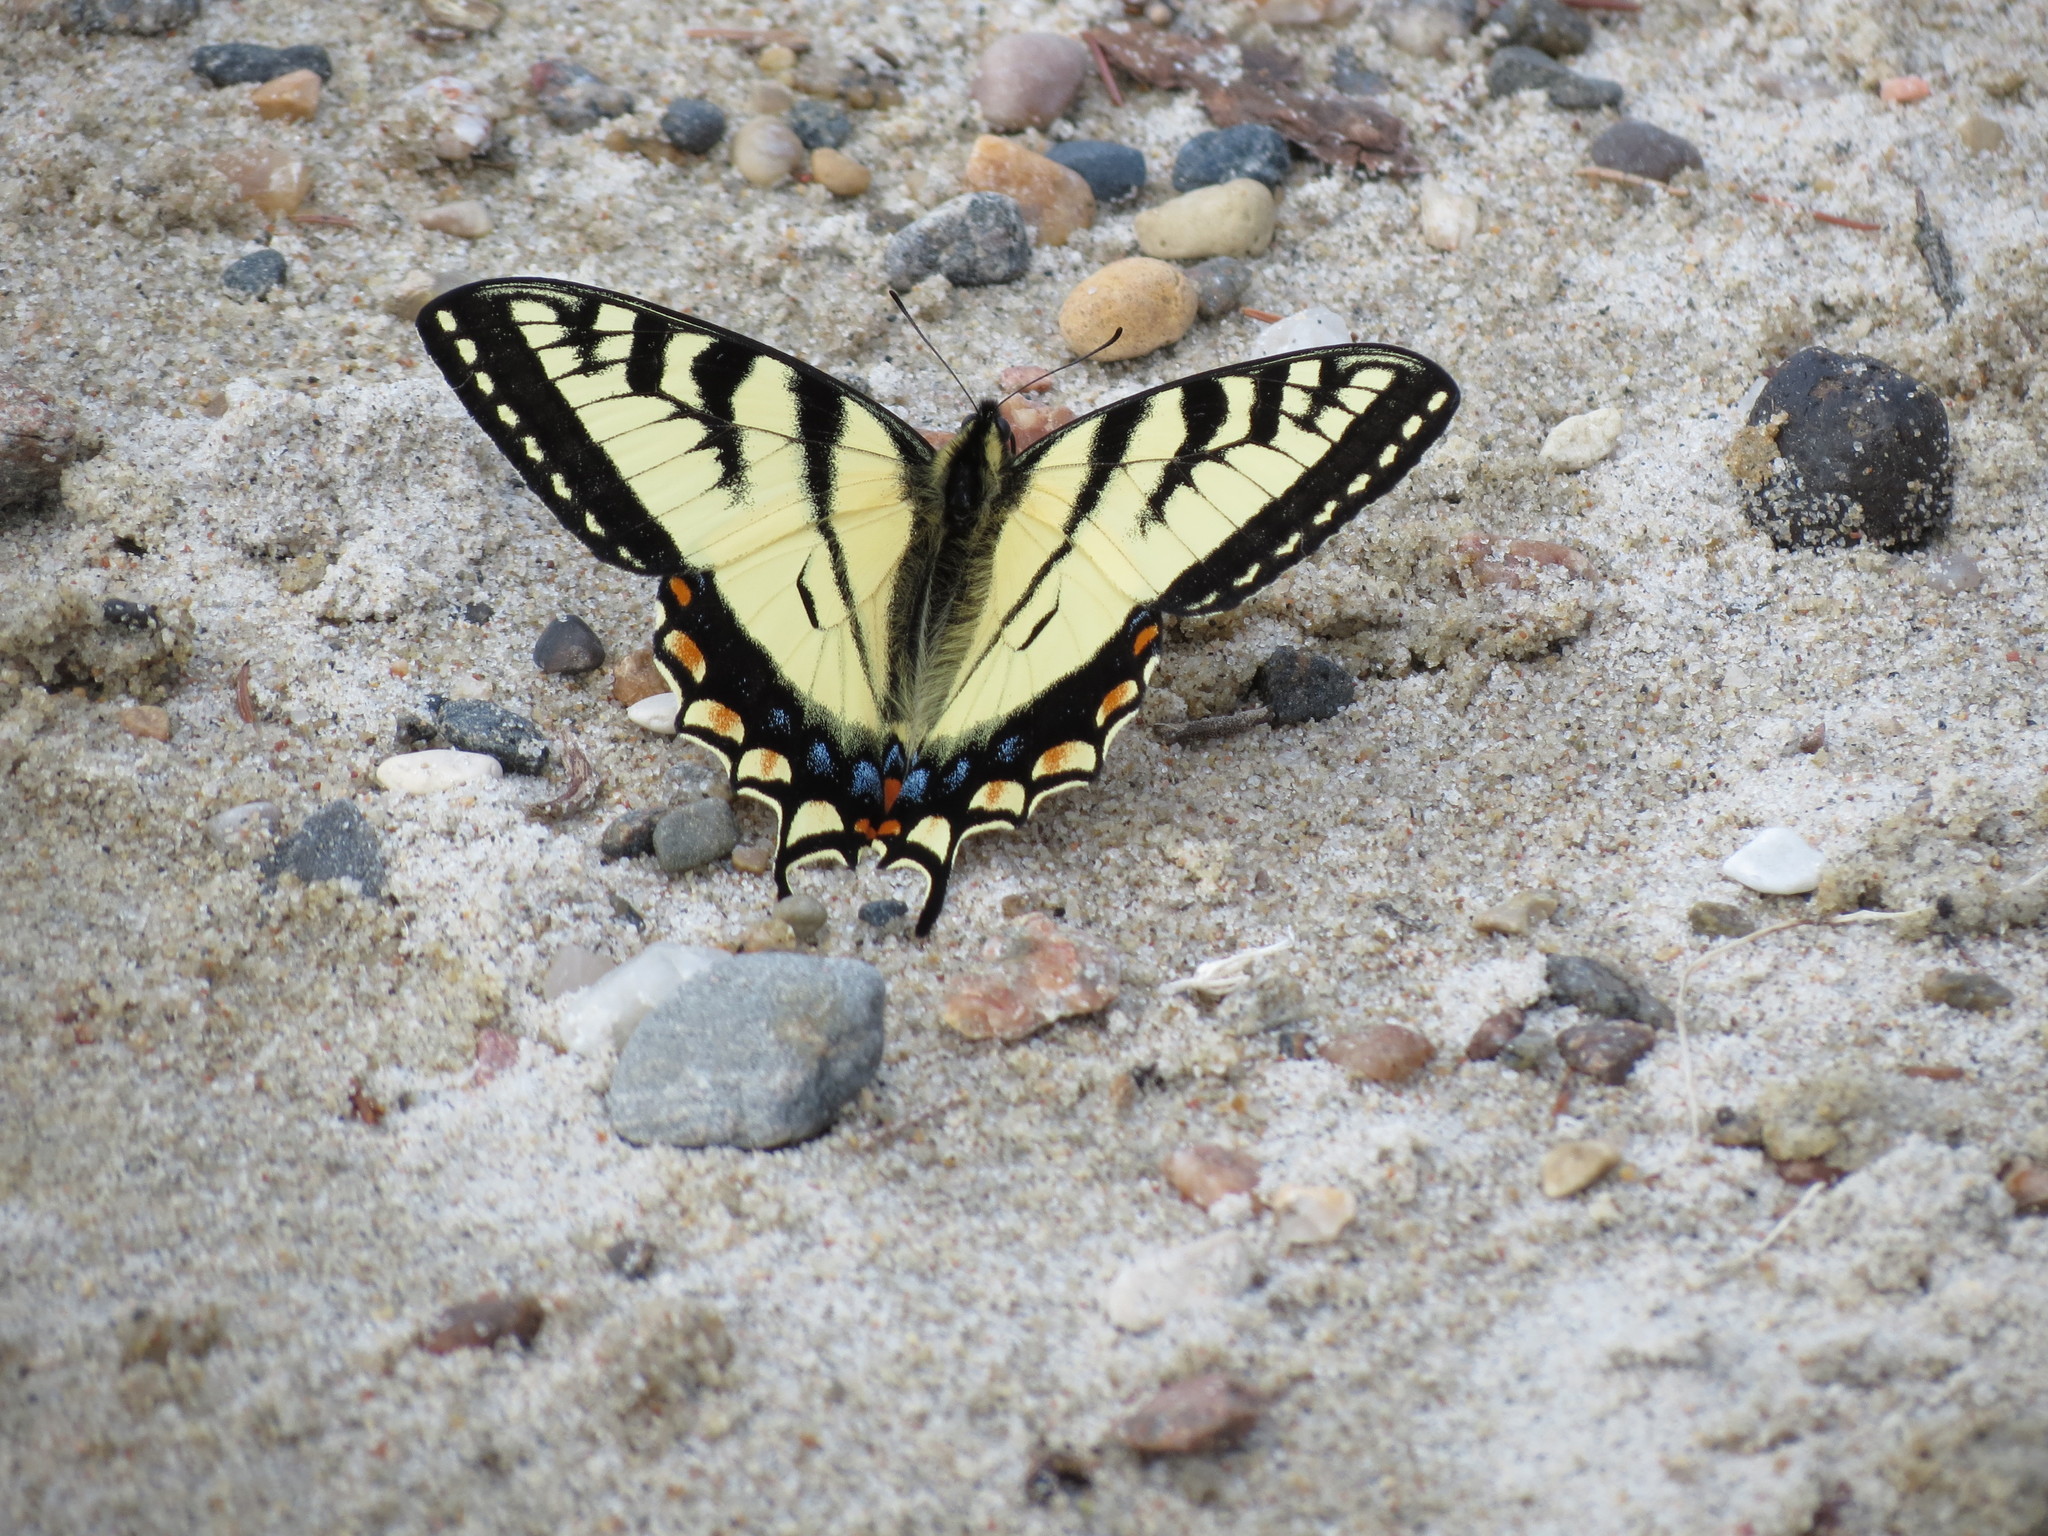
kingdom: Animalia
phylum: Arthropoda
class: Insecta
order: Lepidoptera
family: Papilionidae
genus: Papilio
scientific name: Papilio canadensis
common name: Canadian tiger swallowtail
